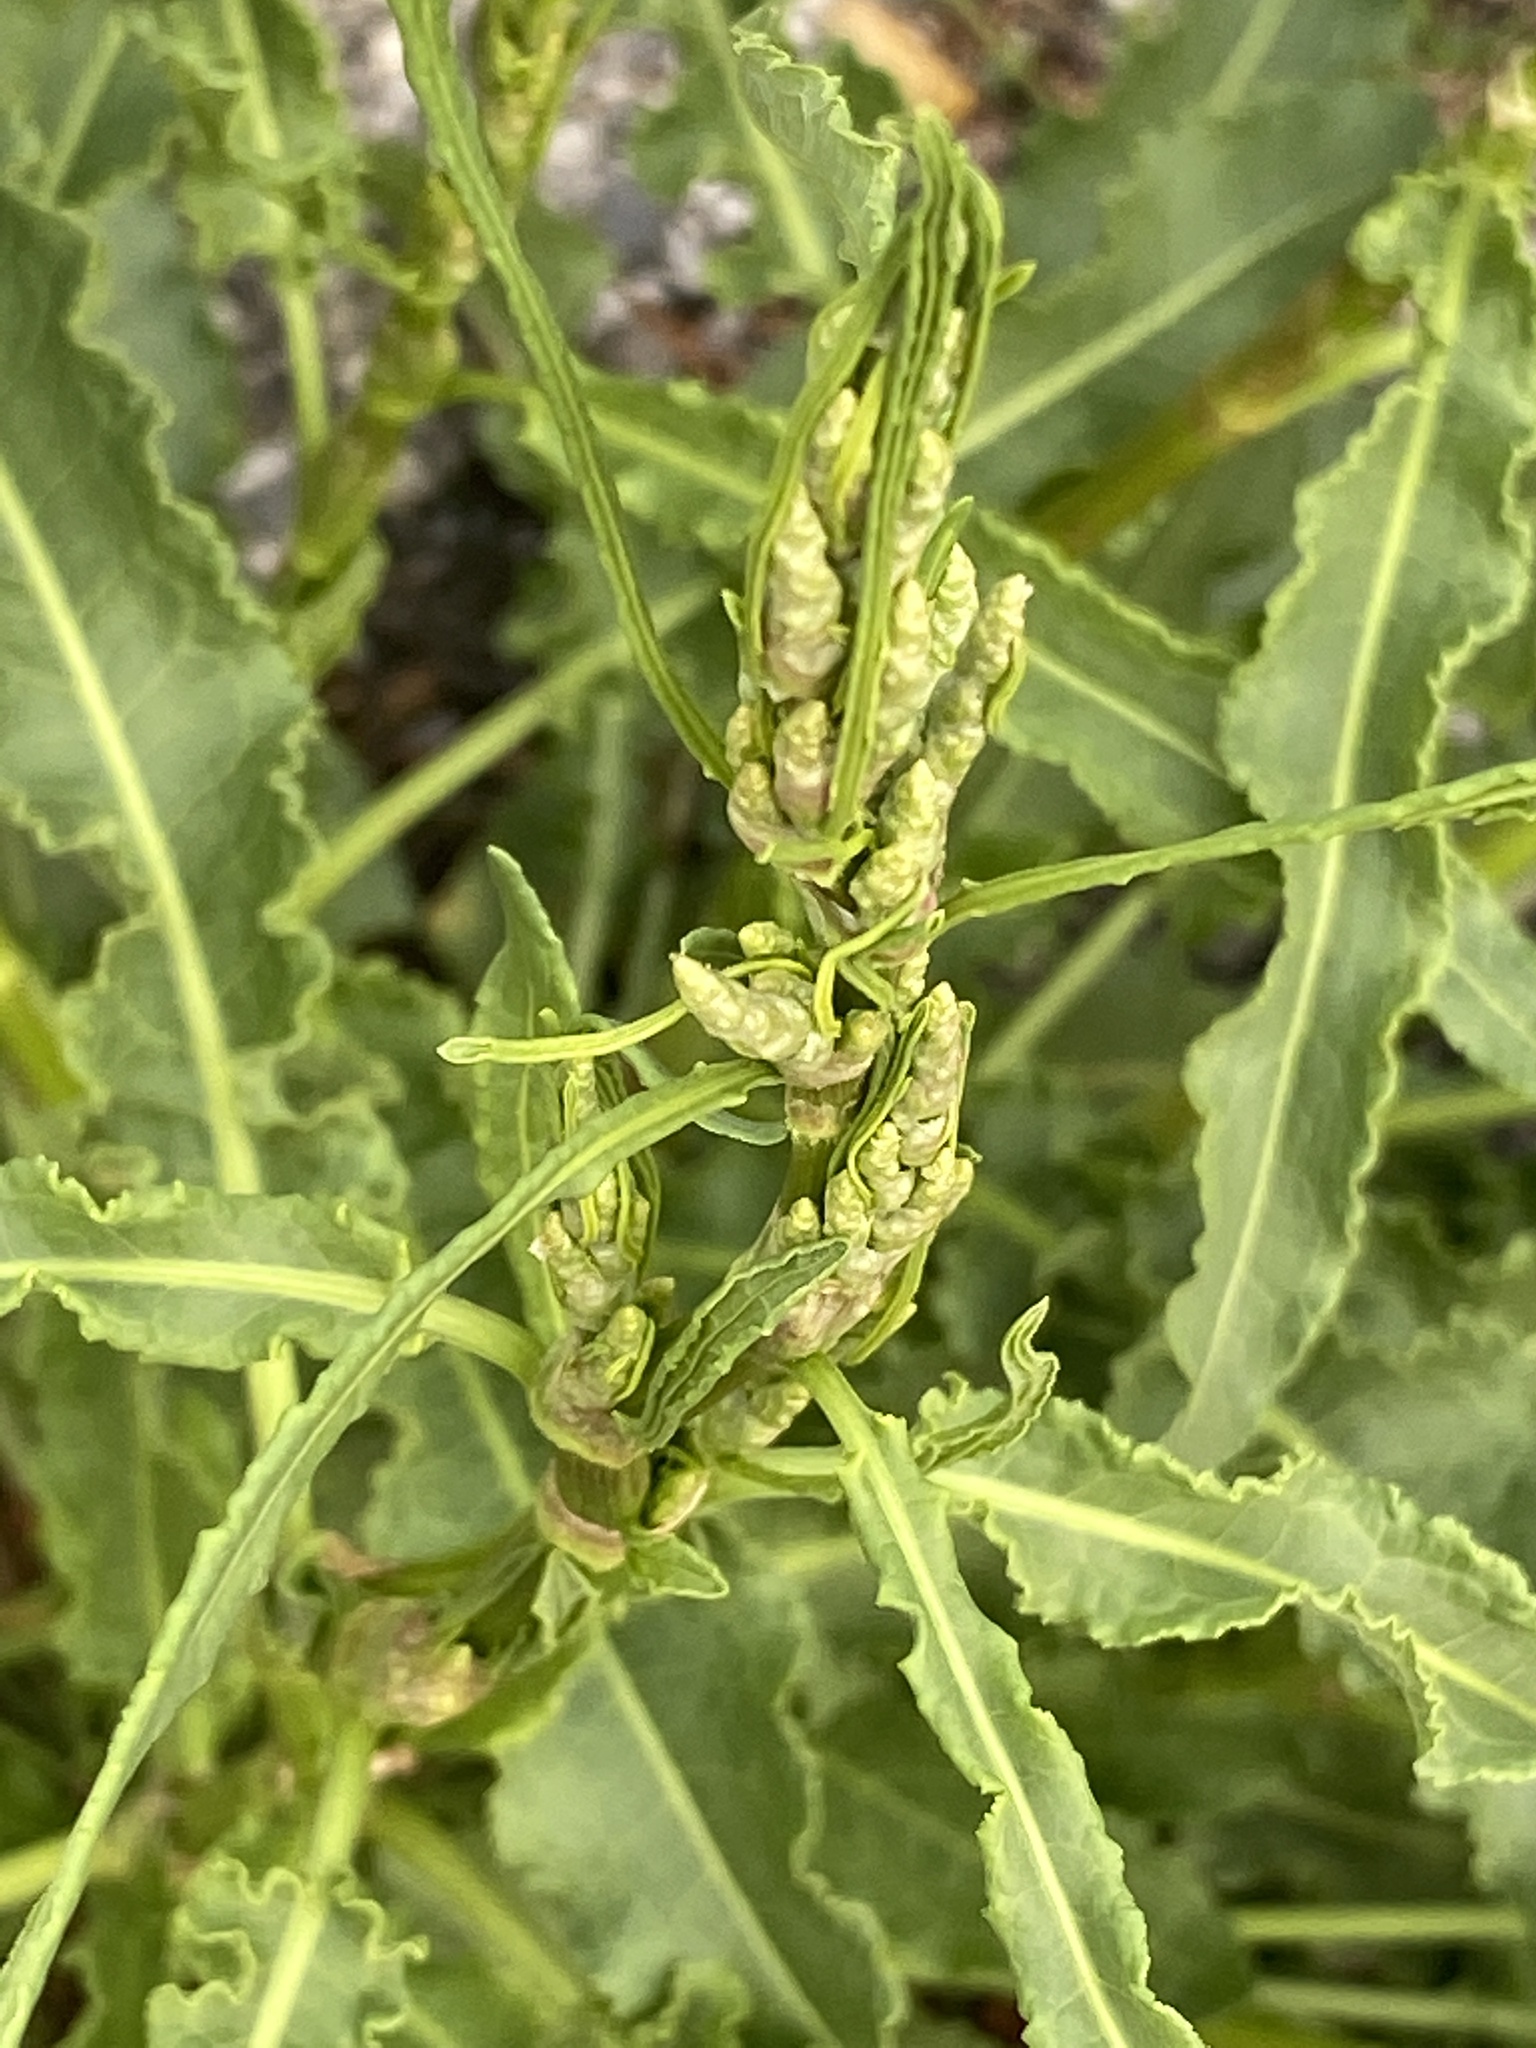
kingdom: Plantae
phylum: Tracheophyta
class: Magnoliopsida
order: Caryophyllales
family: Polygonaceae
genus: Rumex
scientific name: Rumex crispus
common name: Curled dock
